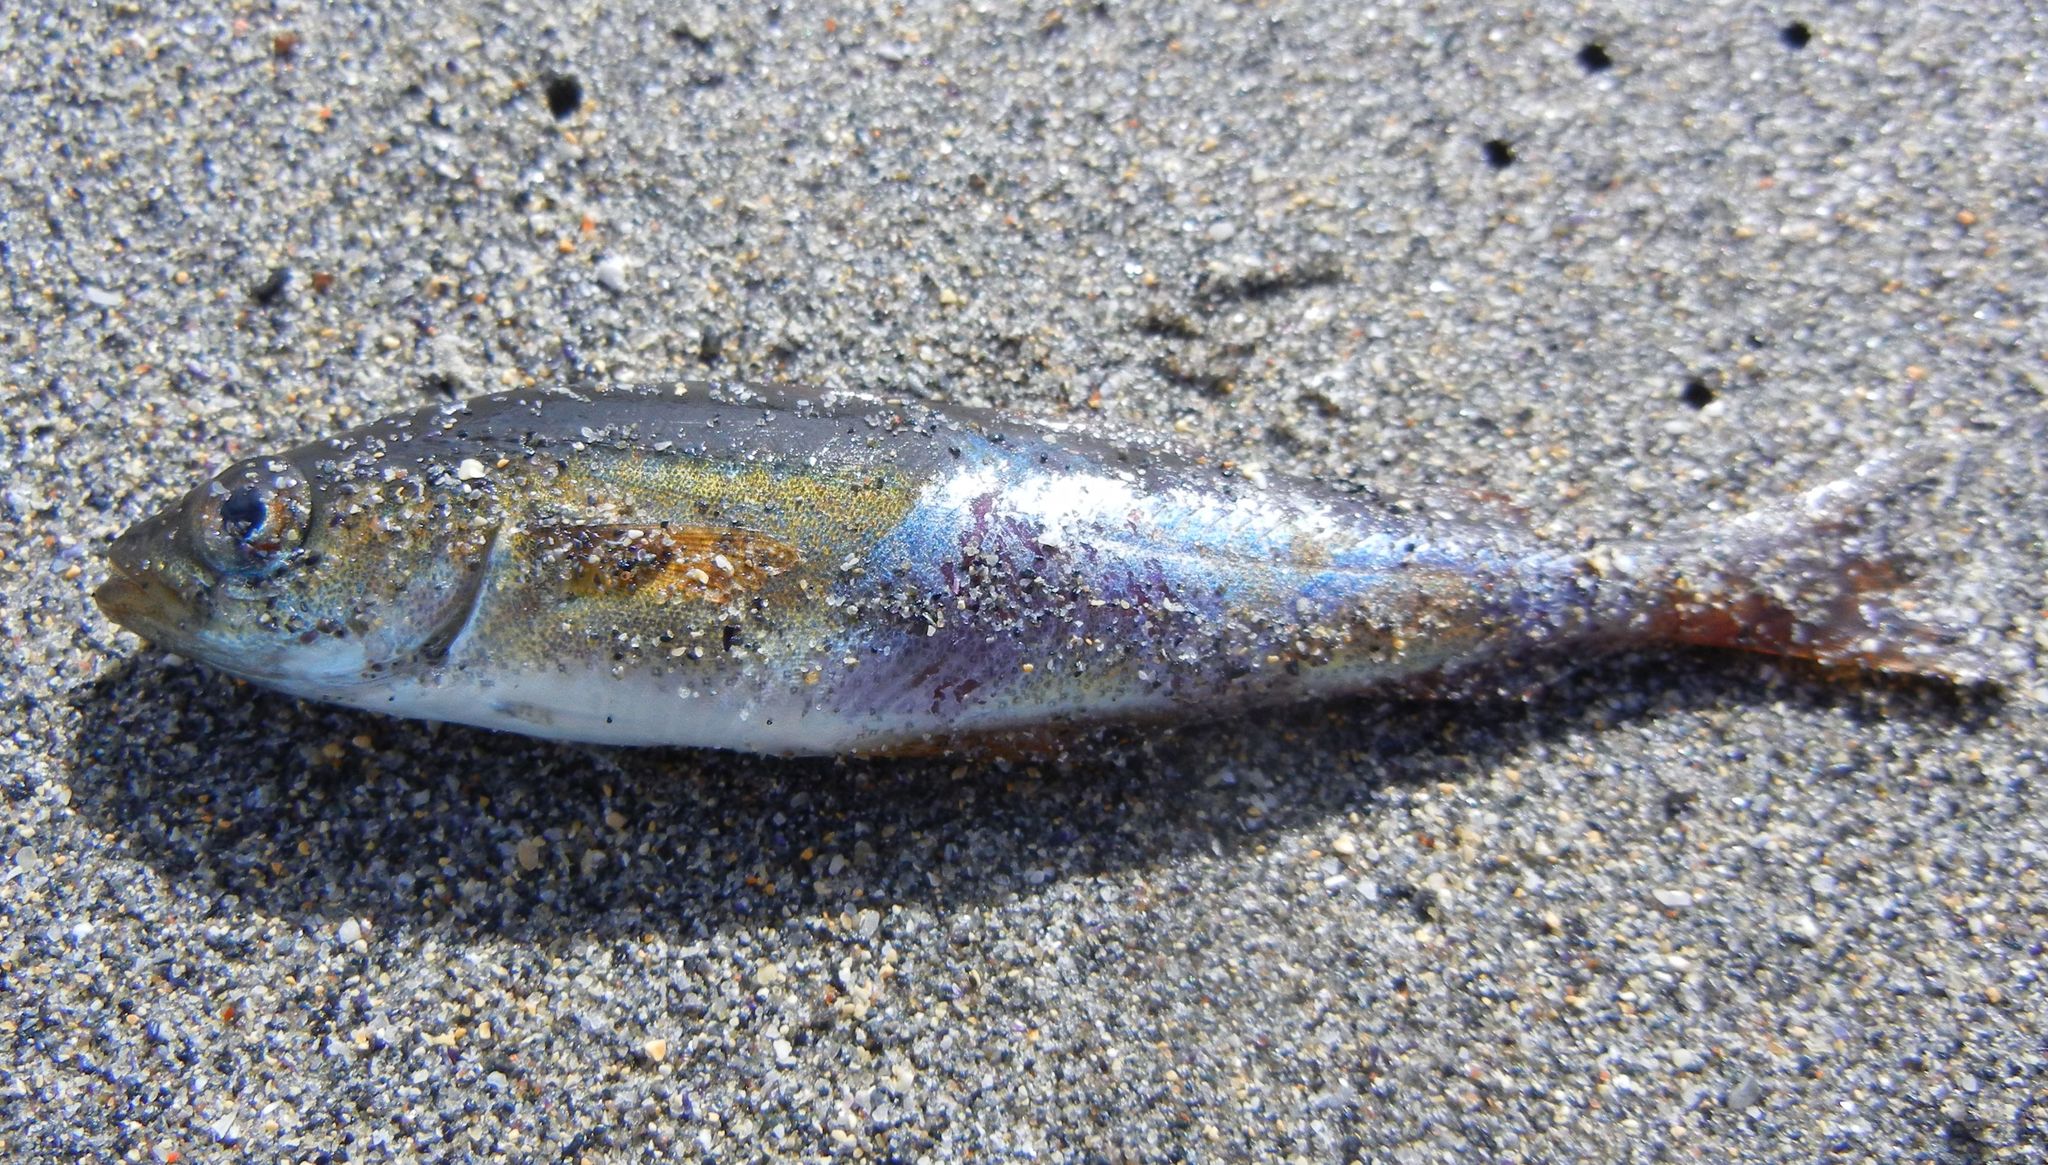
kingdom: Animalia
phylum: Chordata
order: Gadiformes
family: Gadidae
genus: Pollachius
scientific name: Pollachius virens
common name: Saithe
